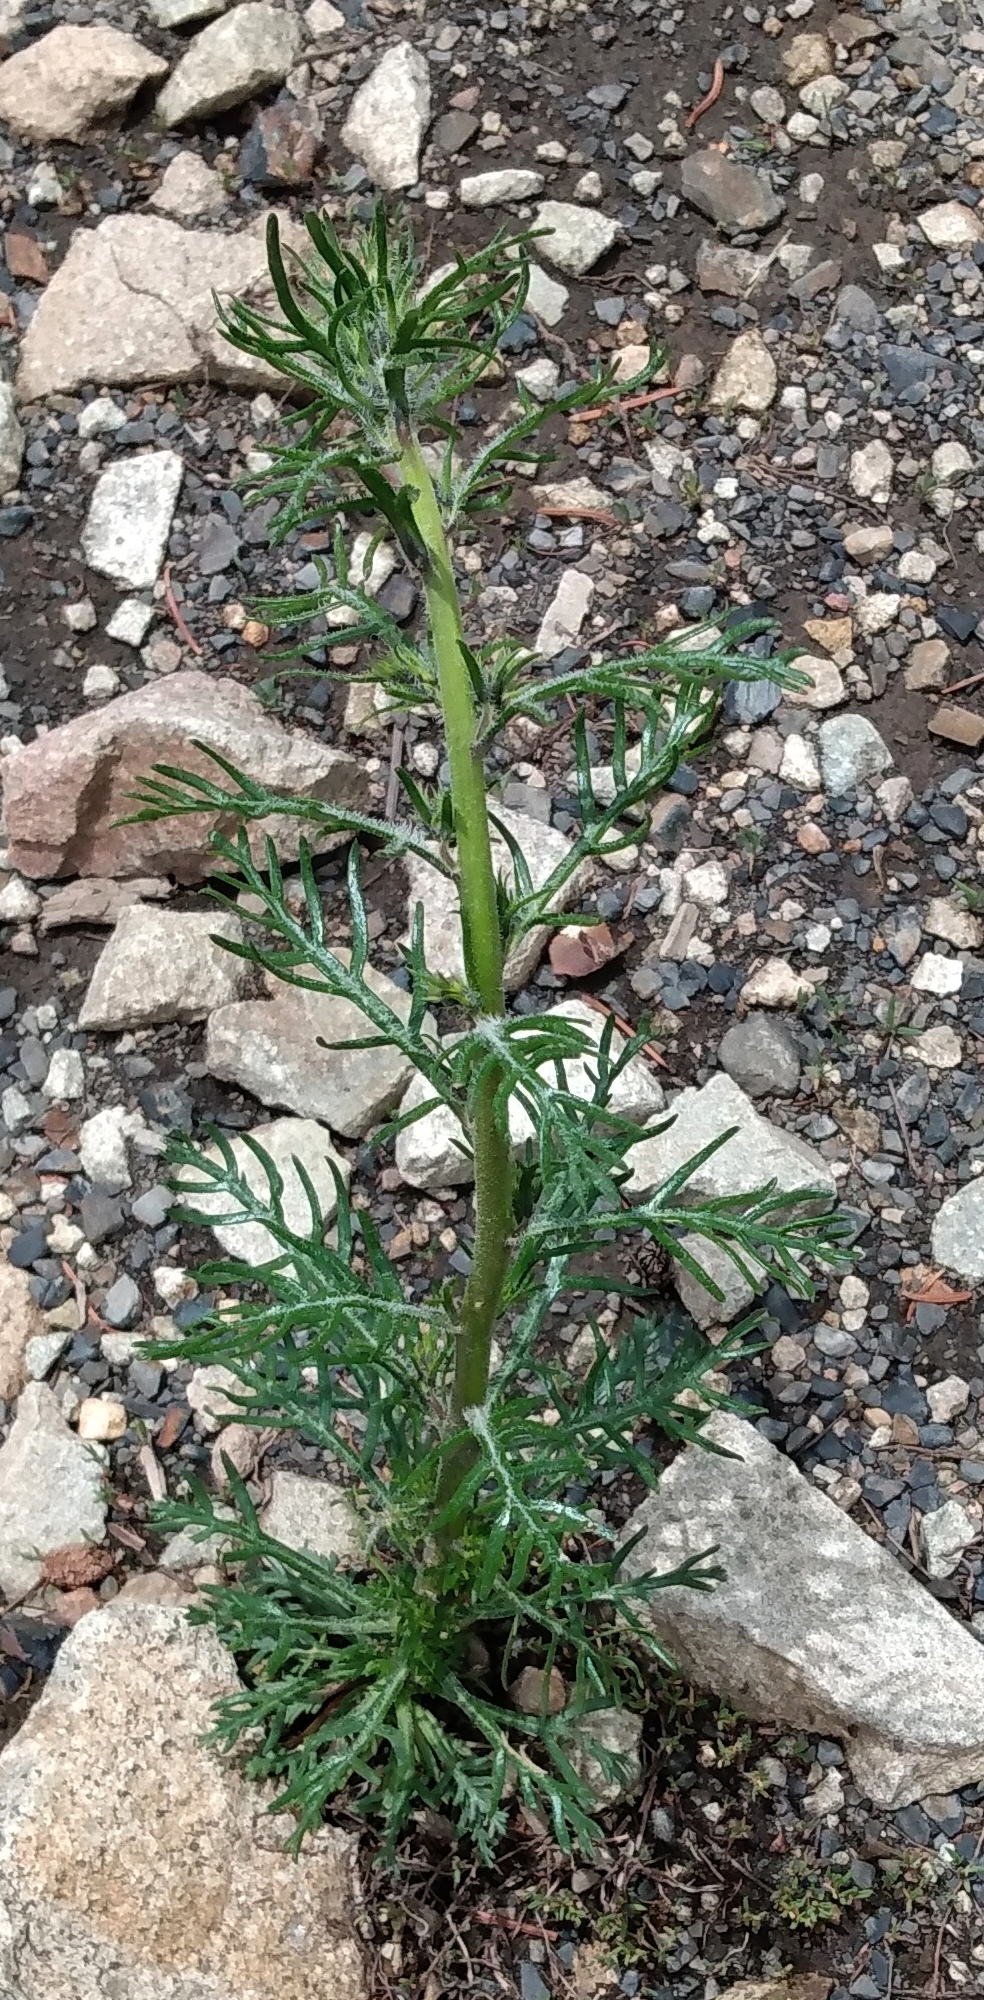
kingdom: Plantae
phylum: Tracheophyta
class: Magnoliopsida
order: Ericales
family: Polemoniaceae
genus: Ipomopsis
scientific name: Ipomopsis aggregata
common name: Scarlet gilia
